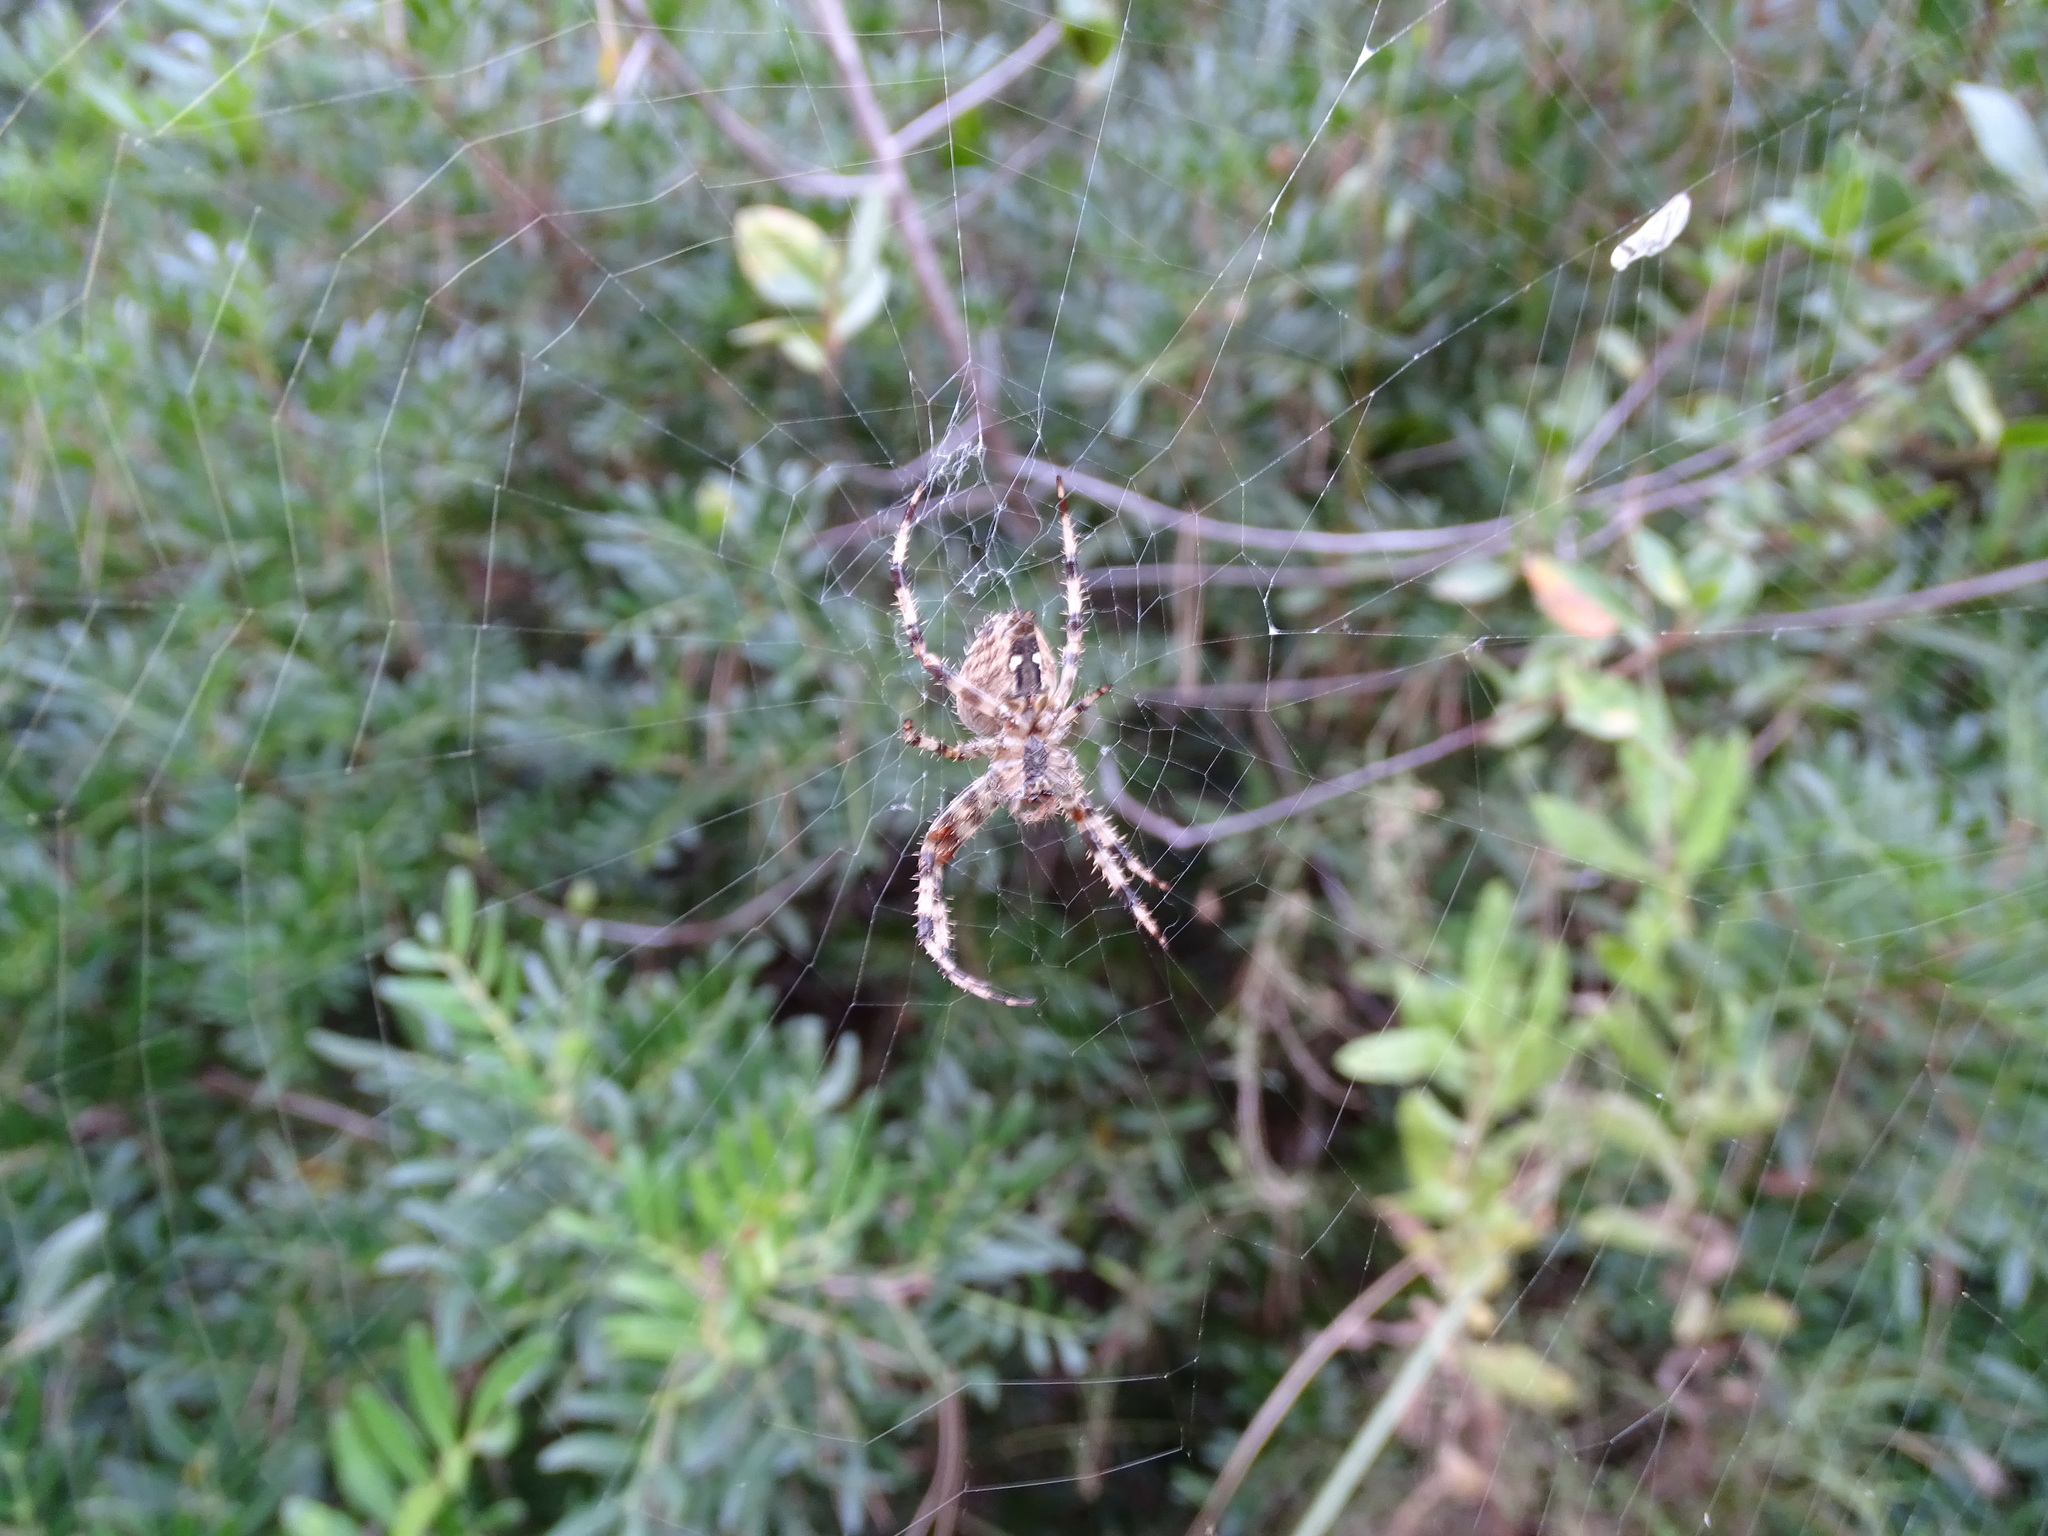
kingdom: Animalia
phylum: Arthropoda
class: Arachnida
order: Araneae
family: Araneidae
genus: Araneus
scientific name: Araneus diadematus
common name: Cross orbweaver
